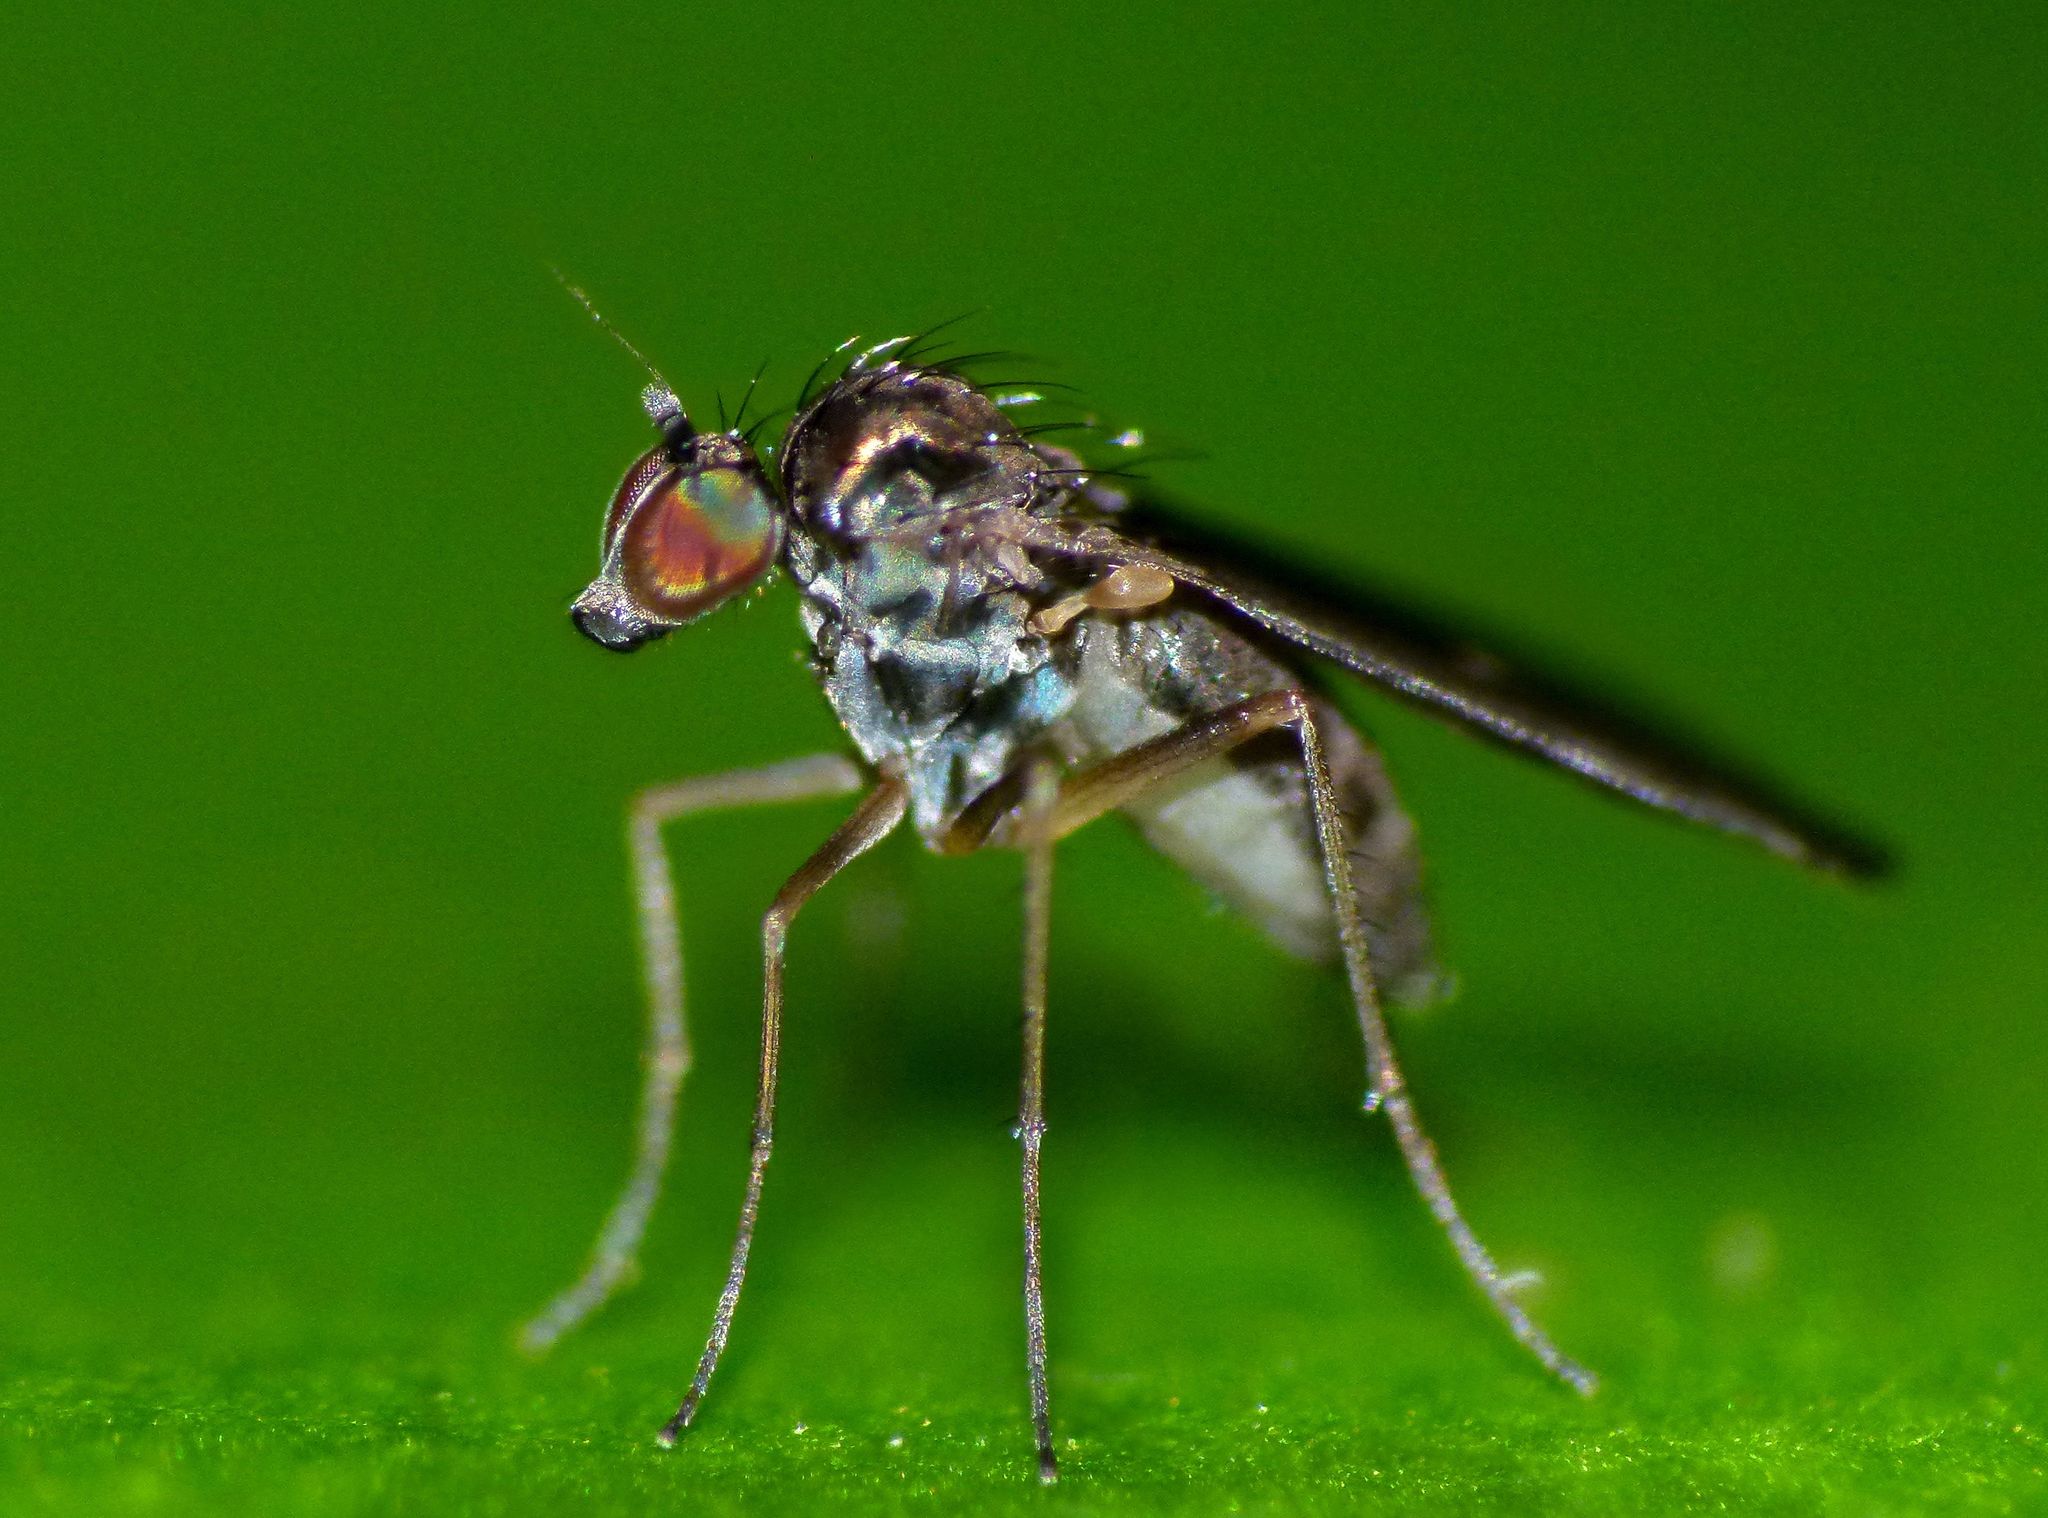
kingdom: Animalia
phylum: Arthropoda
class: Insecta
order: Diptera
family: Dolichopodidae
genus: Micropygus
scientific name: Micropygus vagans
